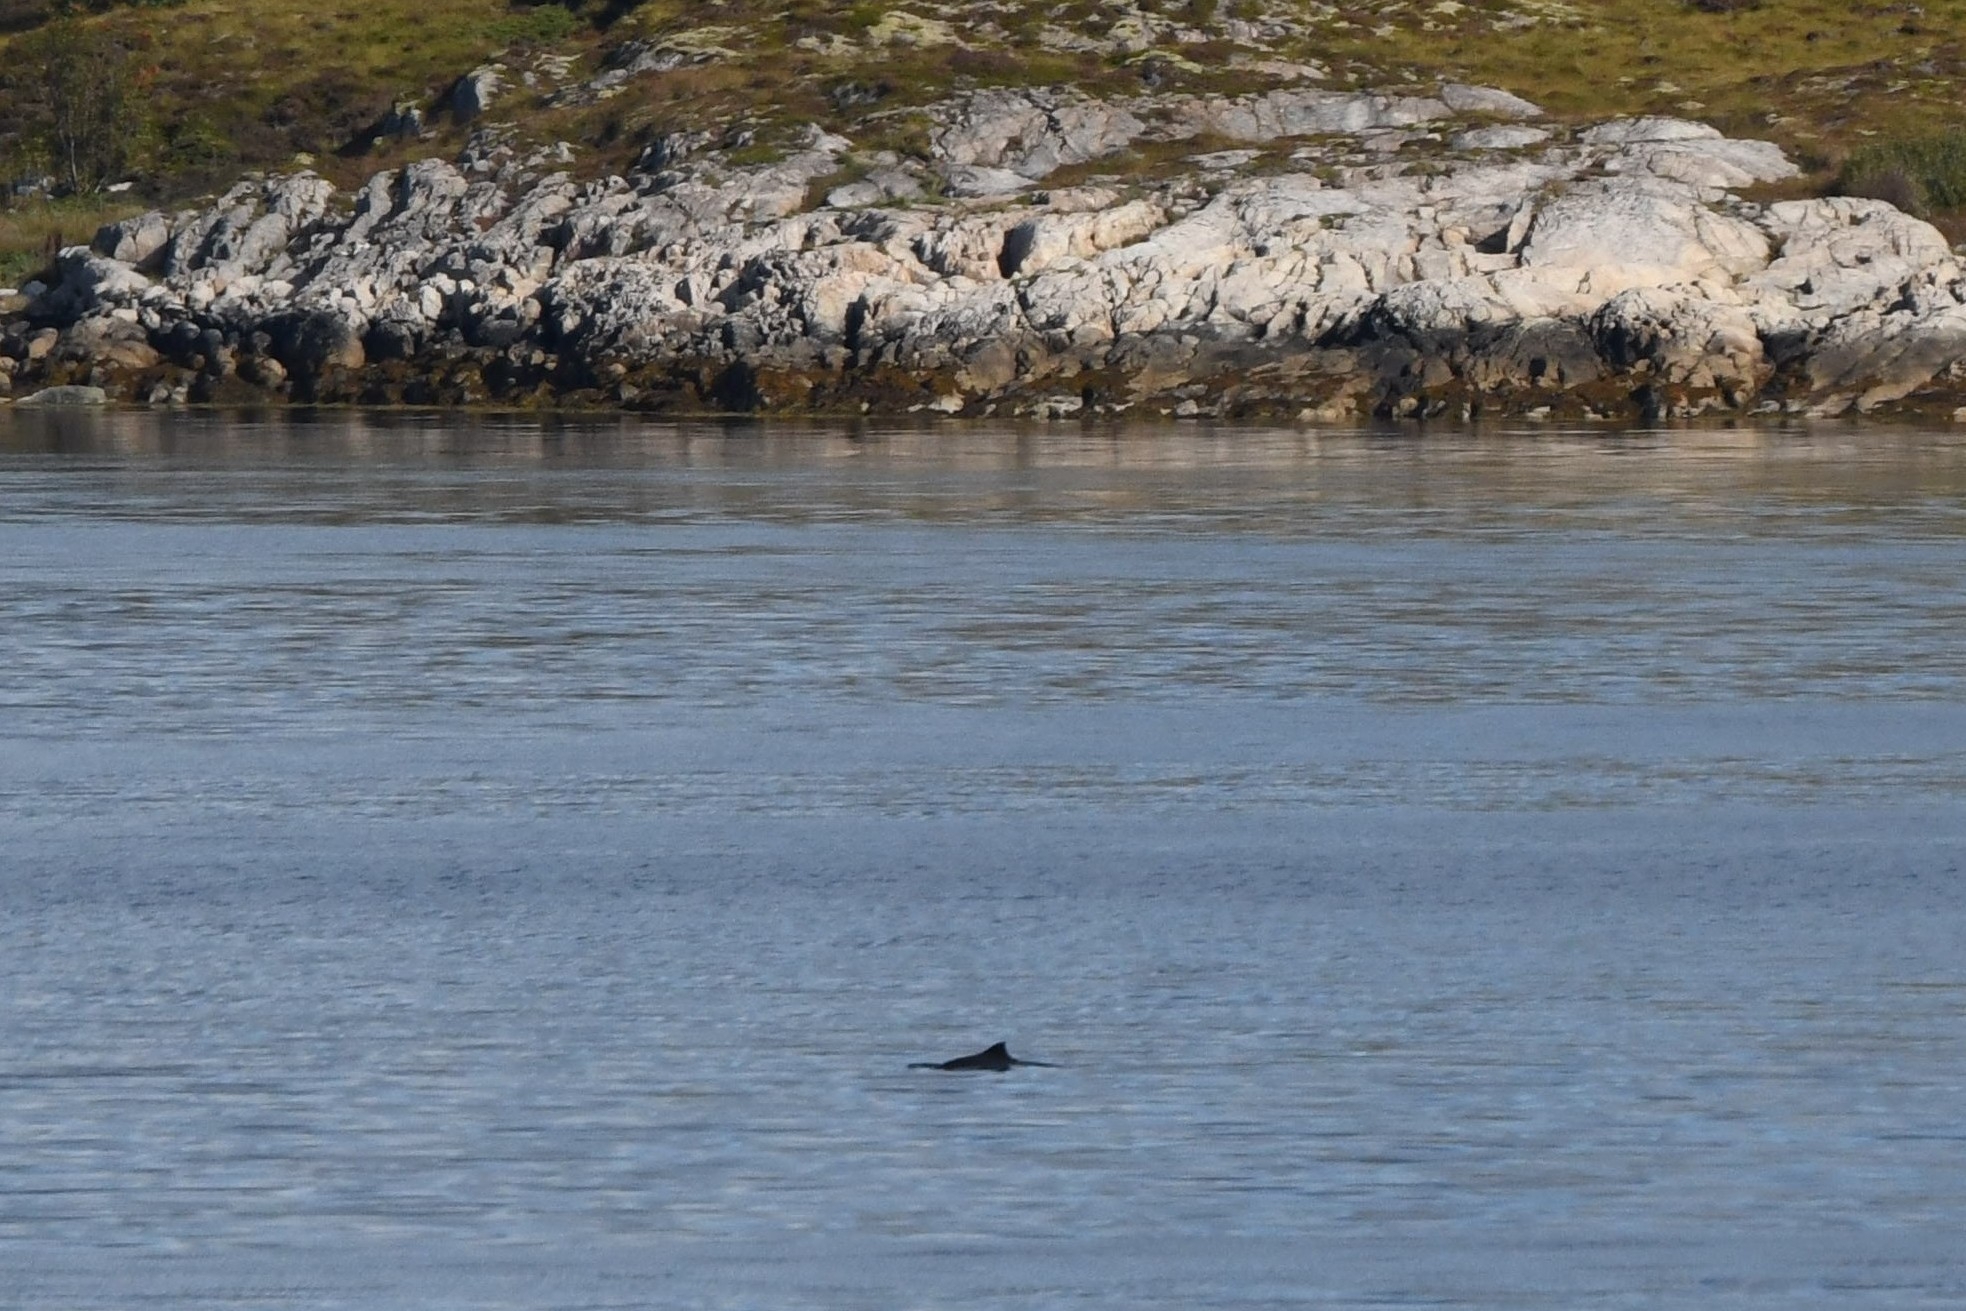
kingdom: Animalia
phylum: Chordata
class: Mammalia
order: Cetacea
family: Phocoenidae
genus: Phocoena
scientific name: Phocoena phocoena
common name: Harbor porpoise
